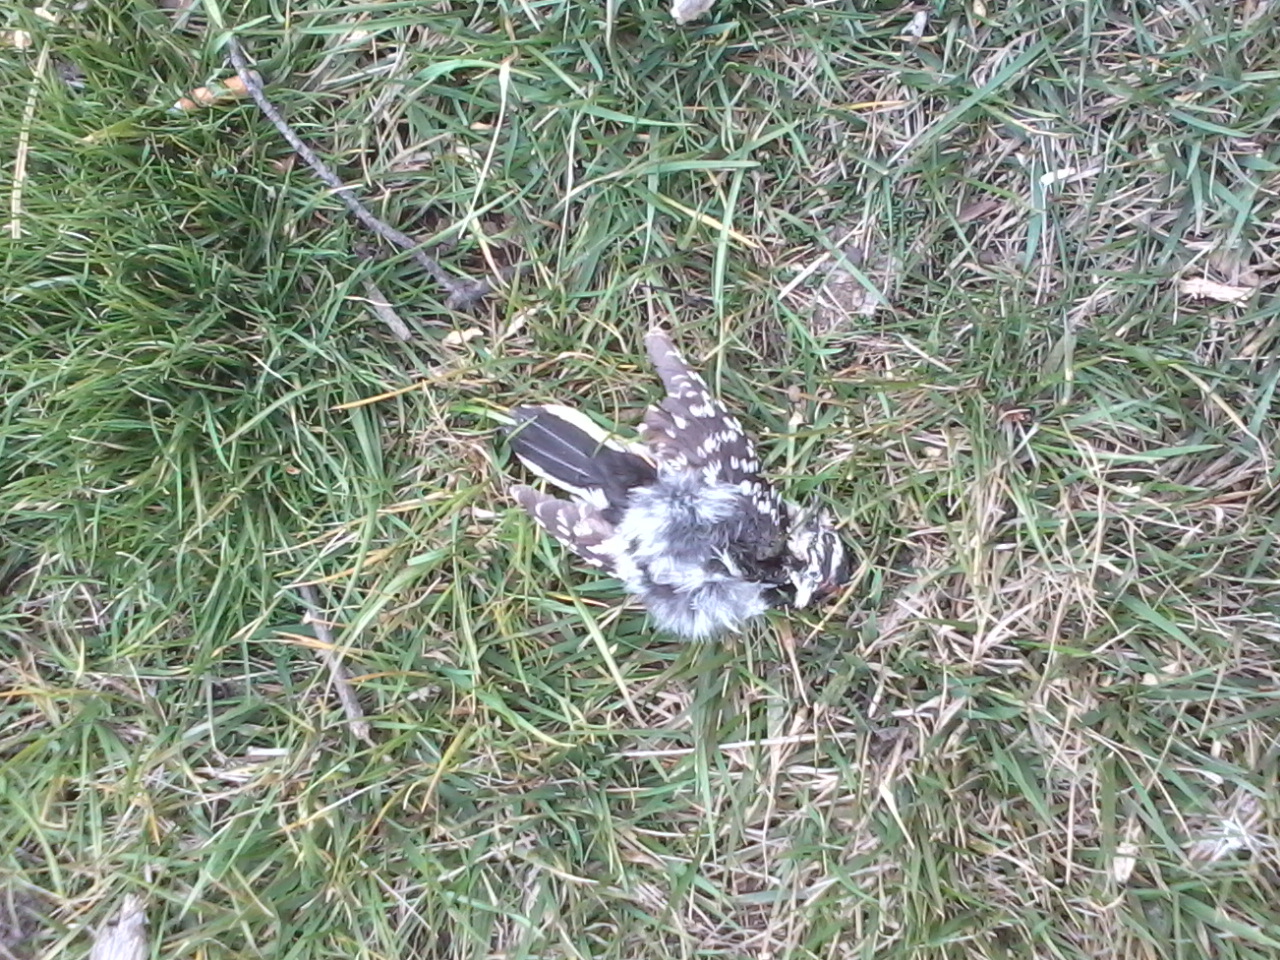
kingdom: Animalia
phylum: Chordata
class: Aves
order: Piciformes
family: Picidae
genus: Dryobates
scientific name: Dryobates pubescens
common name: Downy woodpecker
